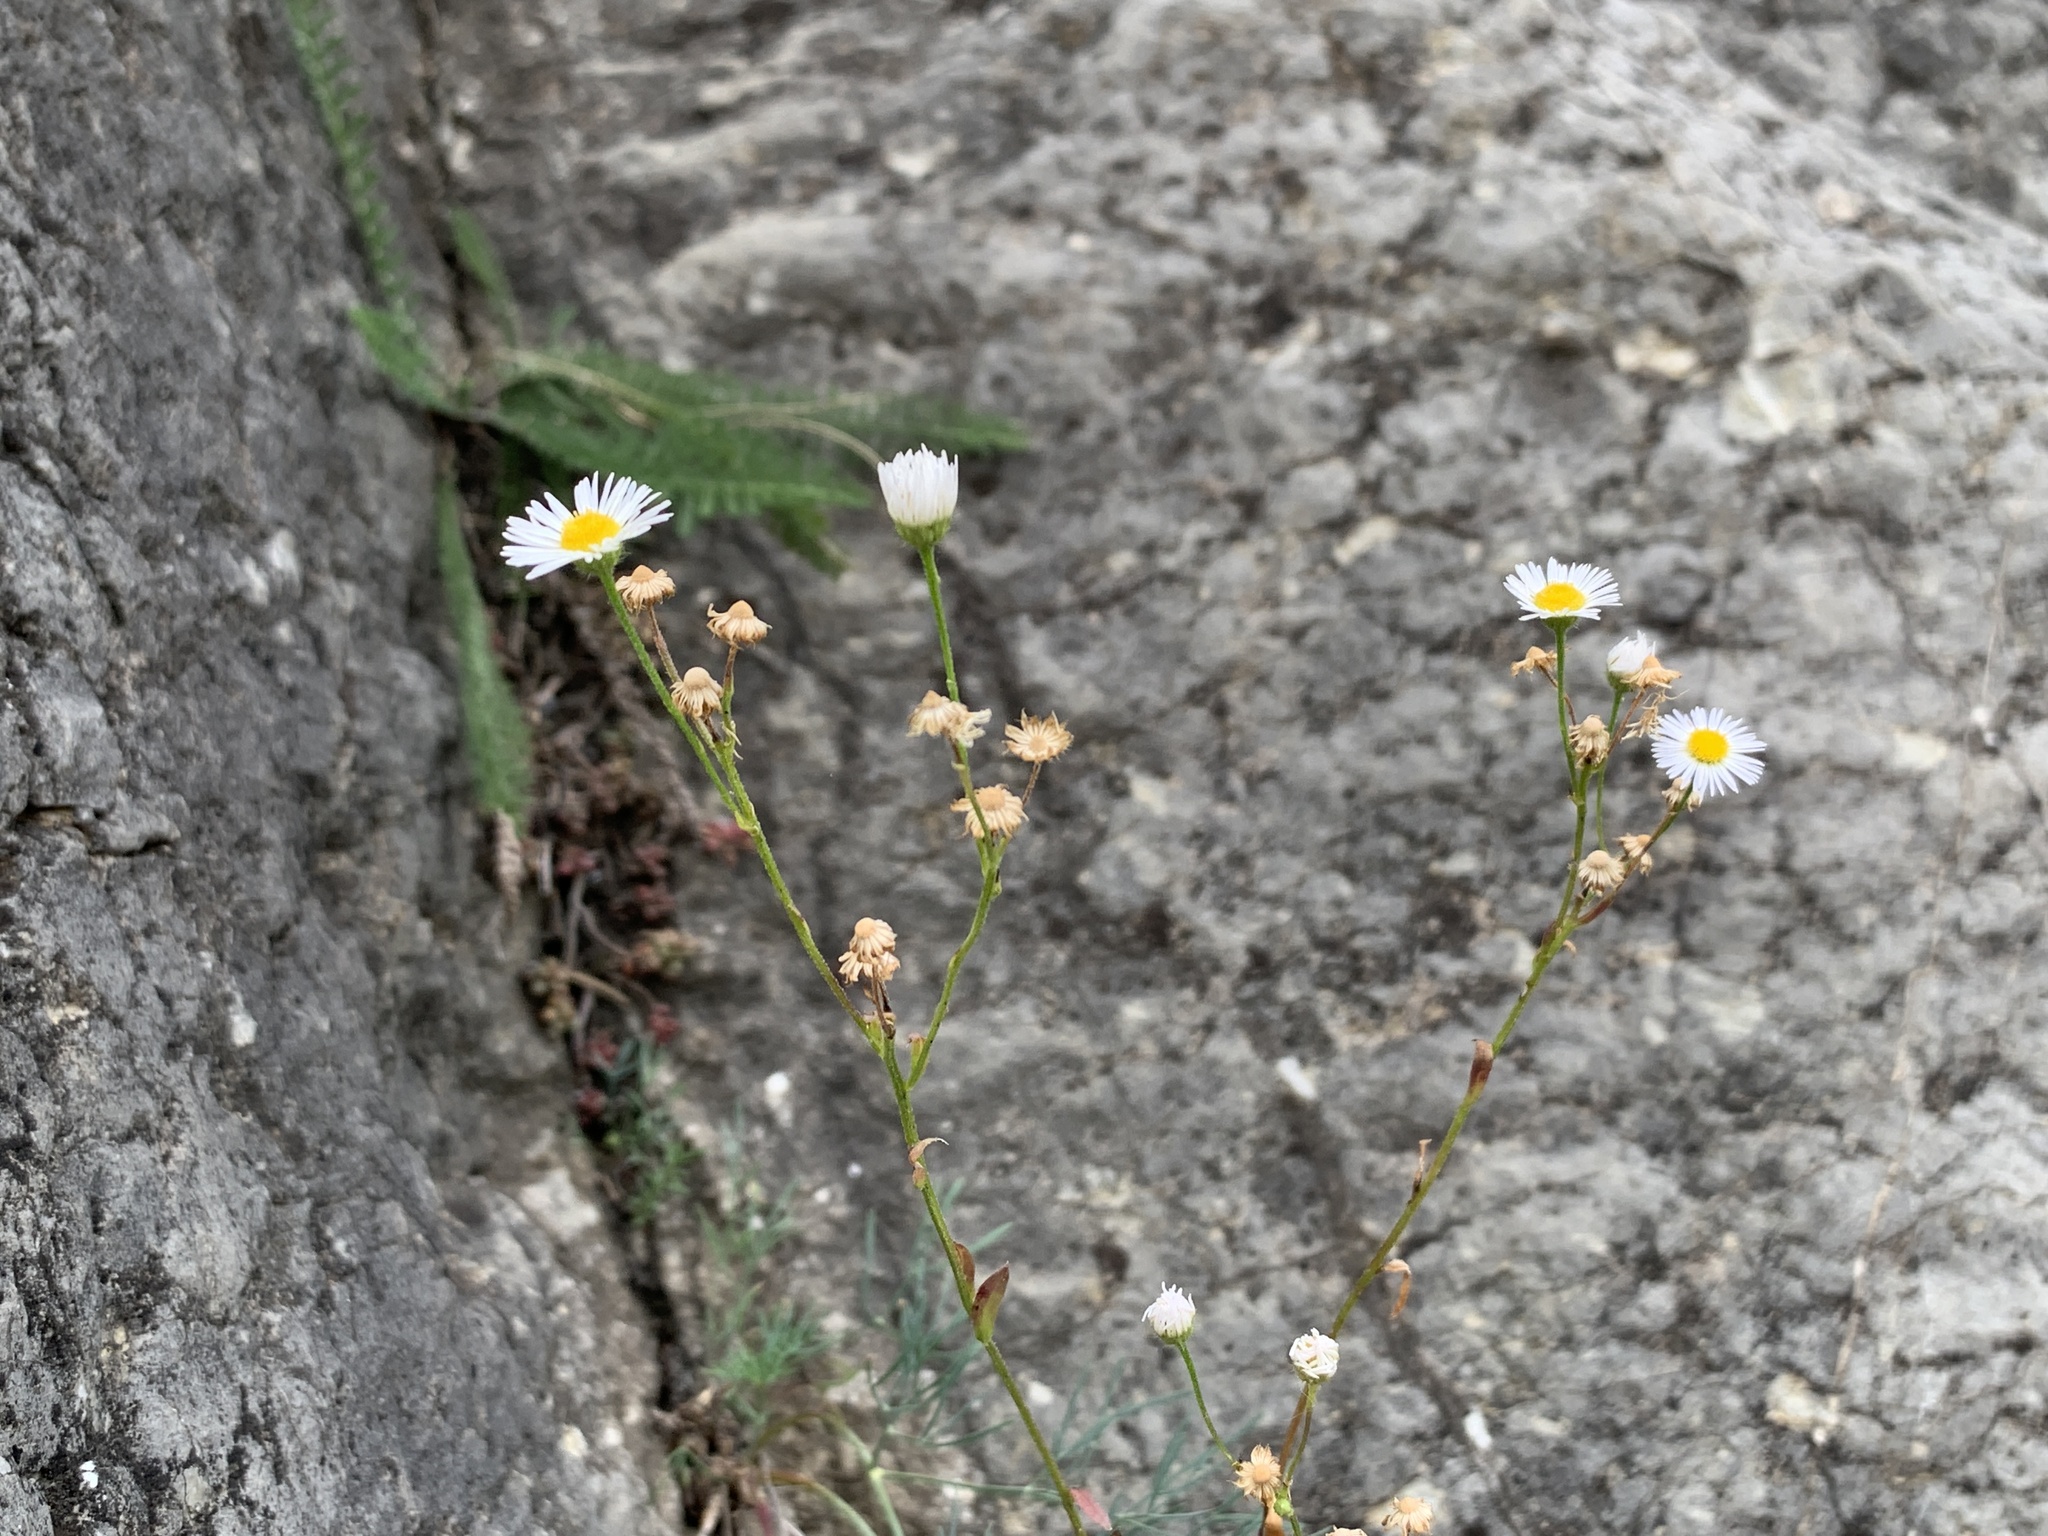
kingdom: Plantae
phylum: Tracheophyta
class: Magnoliopsida
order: Asterales
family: Asteraceae
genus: Erigeron
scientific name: Erigeron annuus
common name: Tall fleabane
